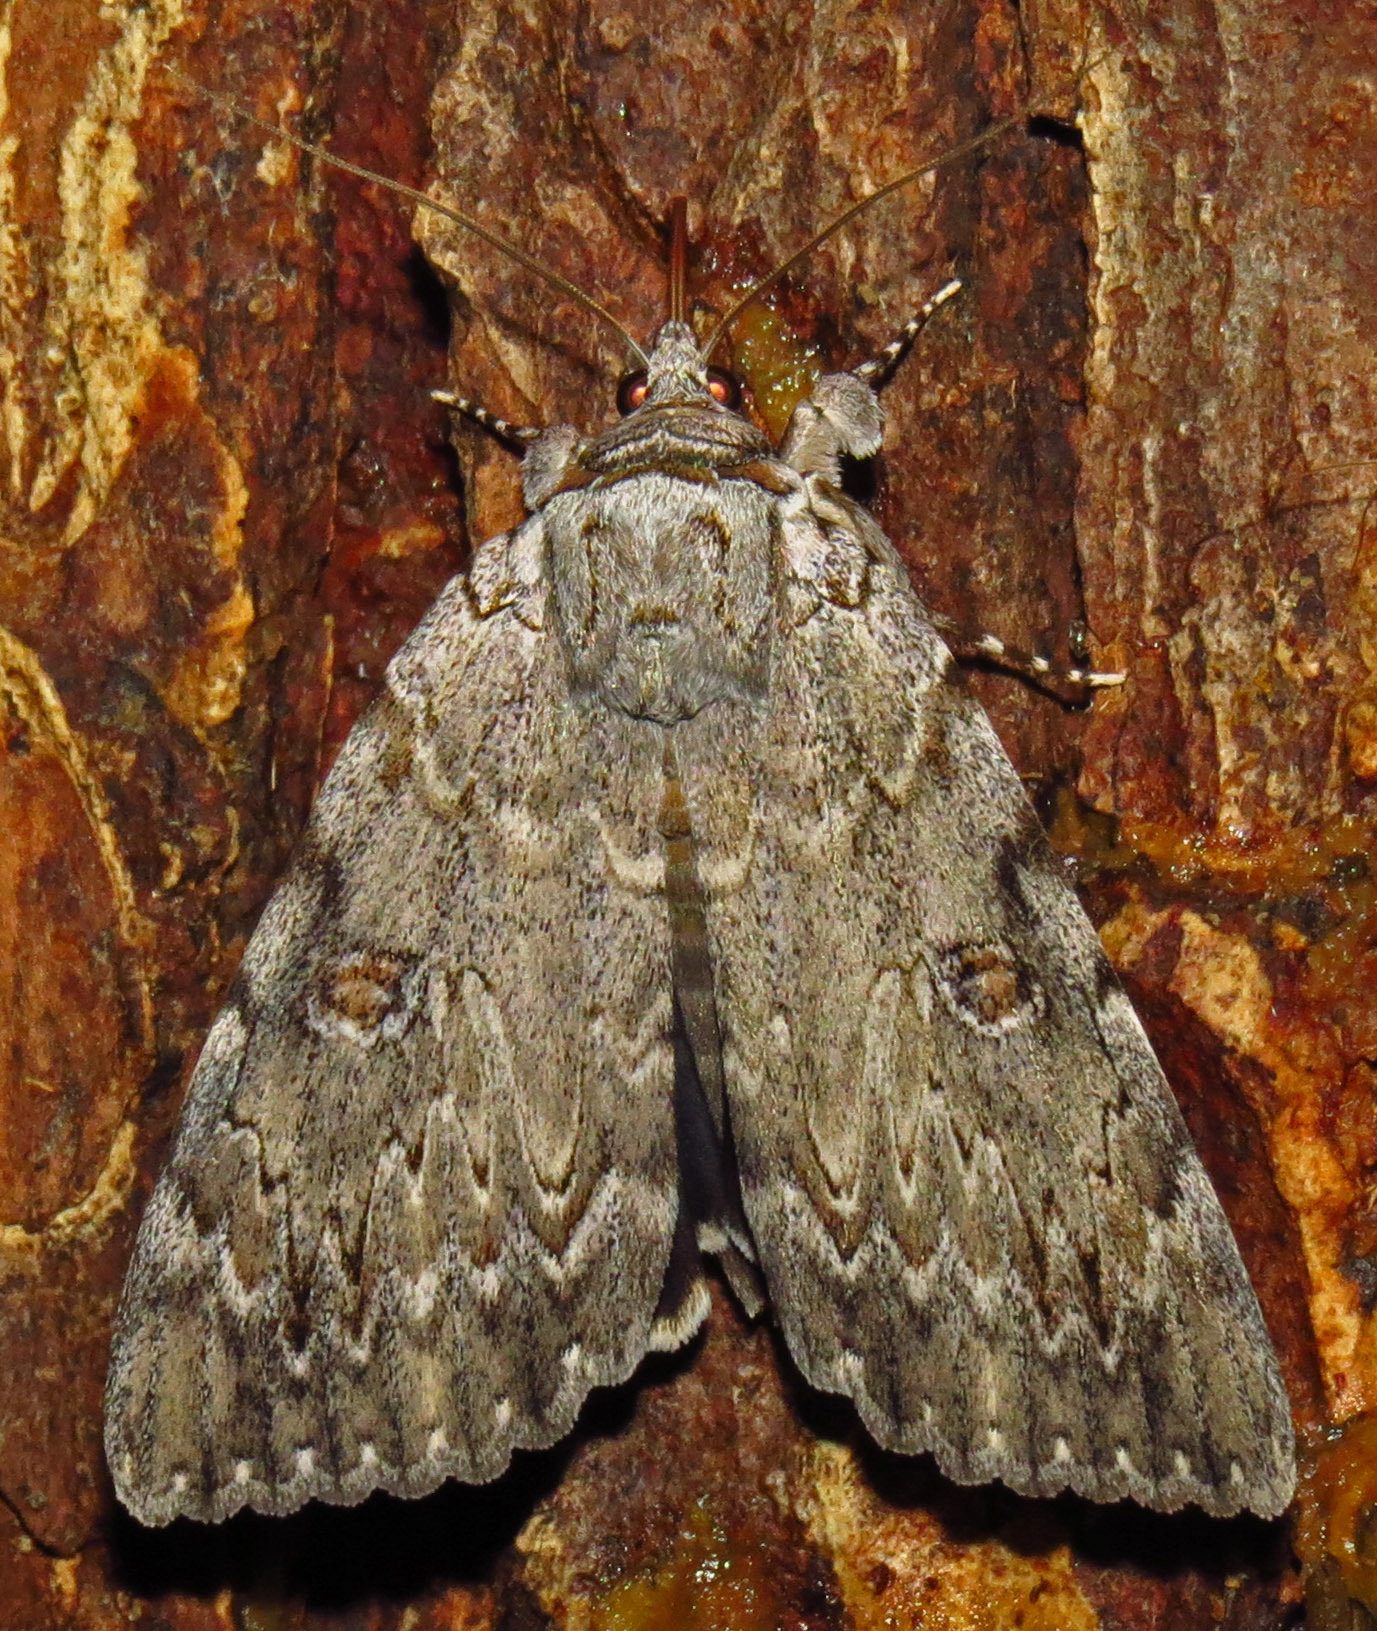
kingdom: Animalia
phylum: Arthropoda
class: Insecta
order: Lepidoptera
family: Erebidae
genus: Catocala
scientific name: Catocala robinsoni
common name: Robinson's underwing
